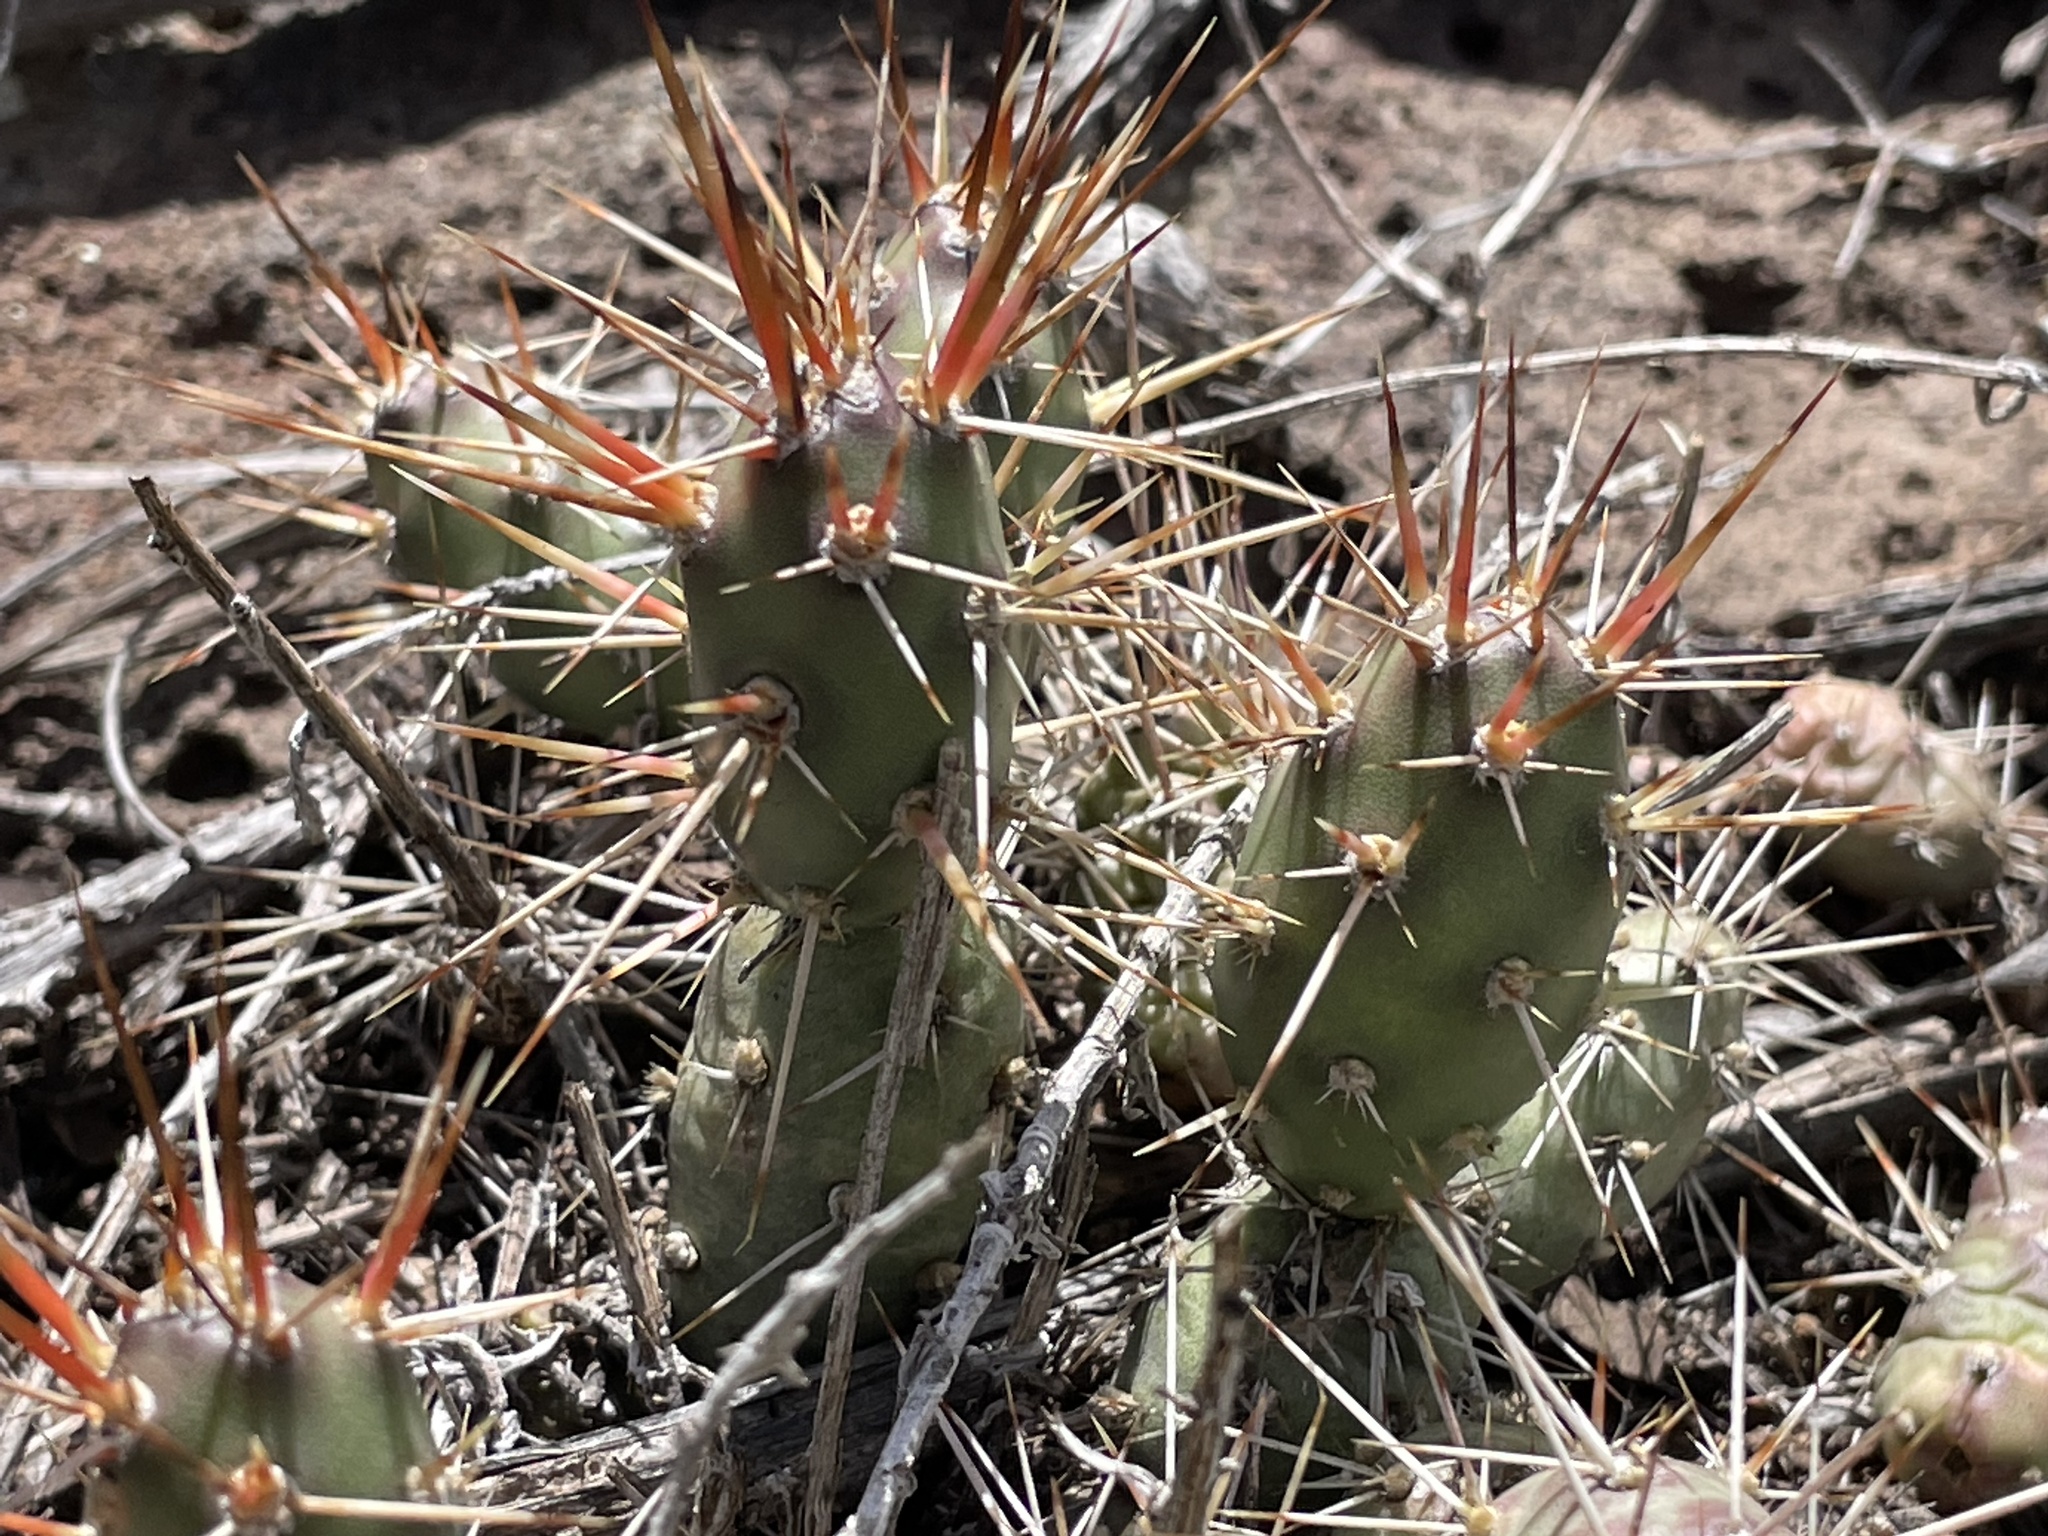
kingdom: Plantae
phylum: Tracheophyta
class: Magnoliopsida
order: Caryophyllales
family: Cactaceae
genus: Opuntia
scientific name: Opuntia fragilis
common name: Brittle cactus
